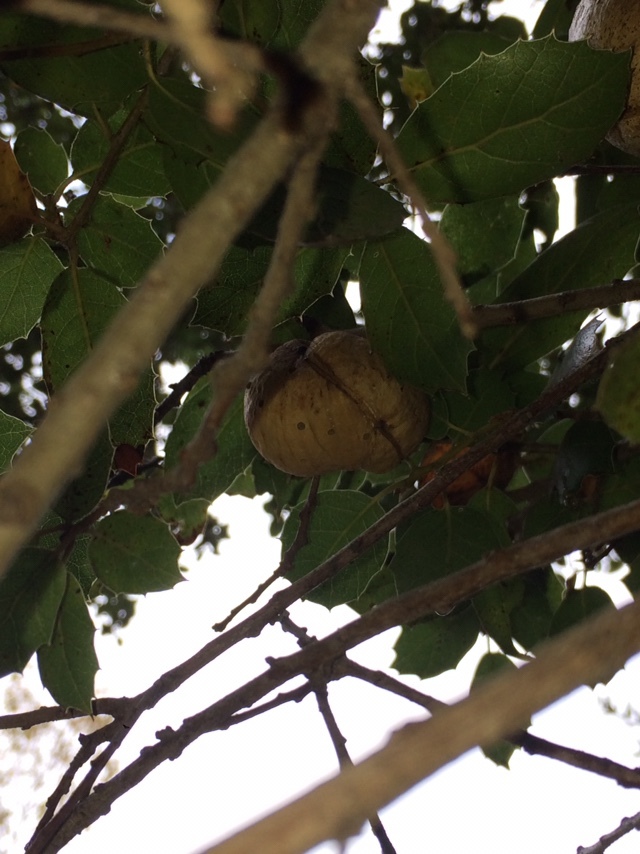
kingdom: Animalia
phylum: Arthropoda
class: Insecta
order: Hymenoptera
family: Cynipidae
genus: Amphibolips
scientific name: Amphibolips quercuspomiformis
